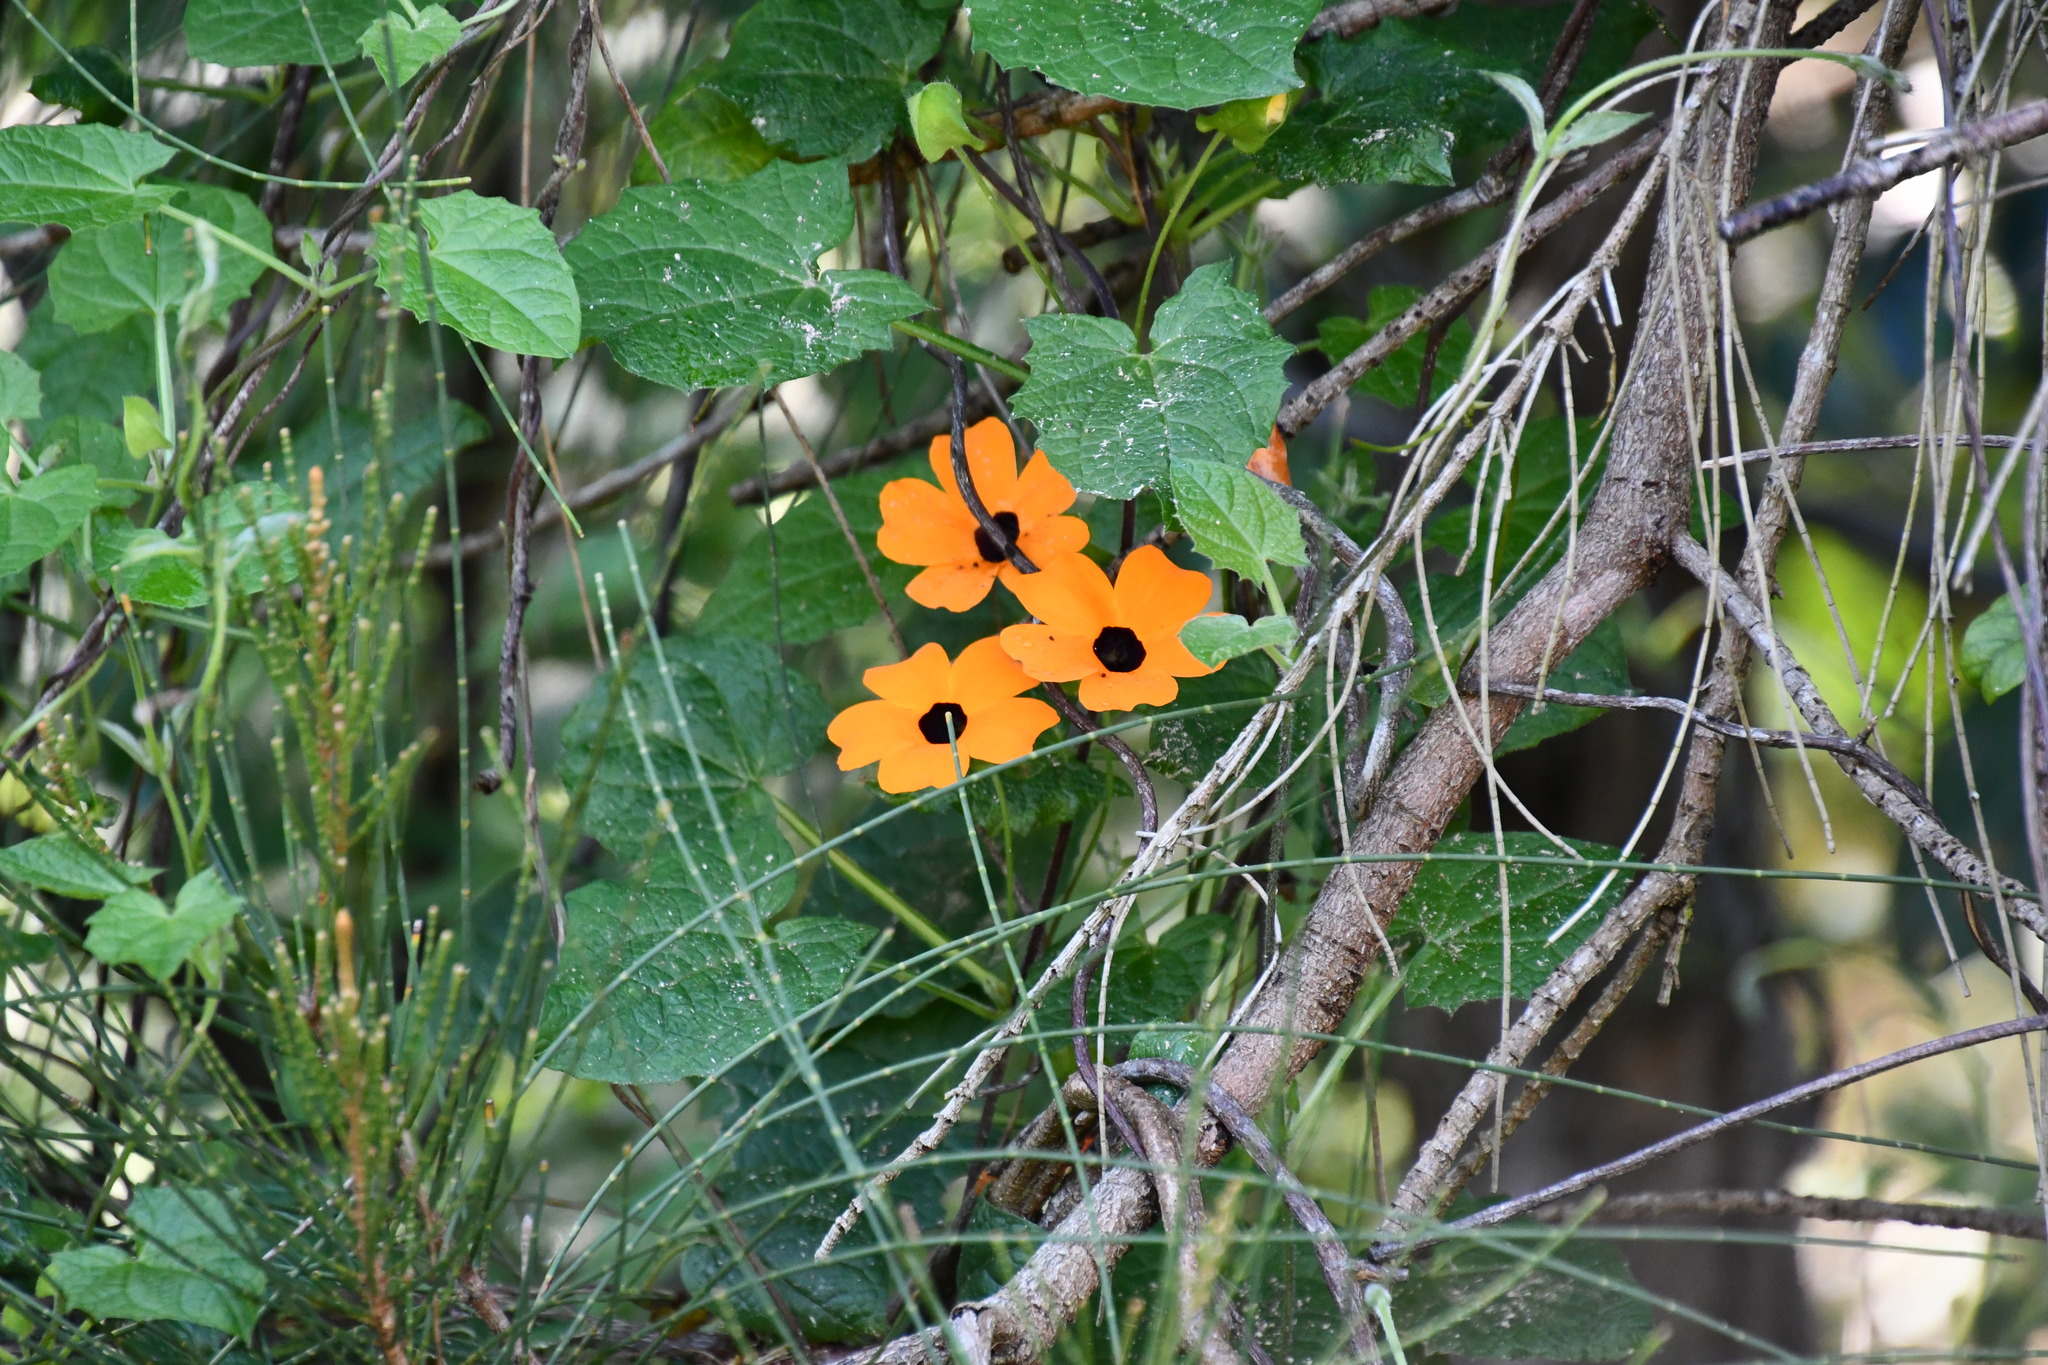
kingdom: Plantae
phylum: Tracheophyta
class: Magnoliopsida
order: Lamiales
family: Acanthaceae
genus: Thunbergia
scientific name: Thunbergia alata
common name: Blackeyed susan vine
